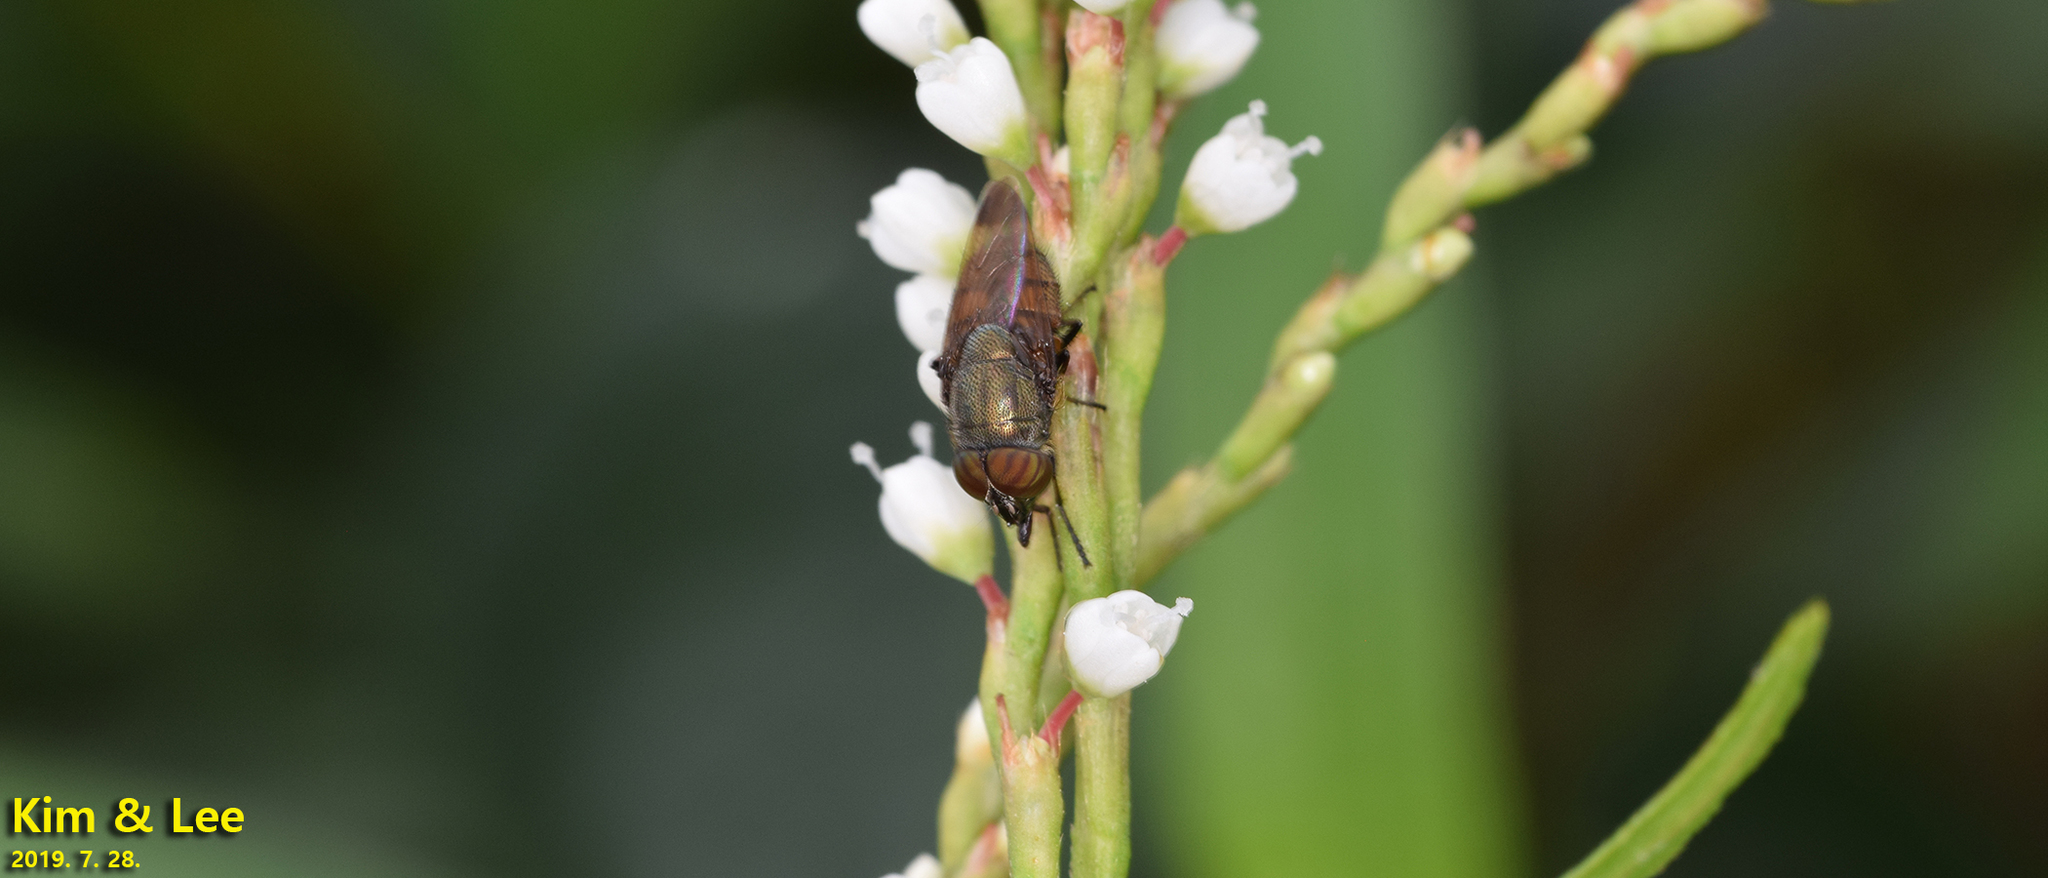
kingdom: Animalia
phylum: Arthropoda
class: Insecta
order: Diptera
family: Calliphoridae
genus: Rhinia
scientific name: Rhinia obsoleta
